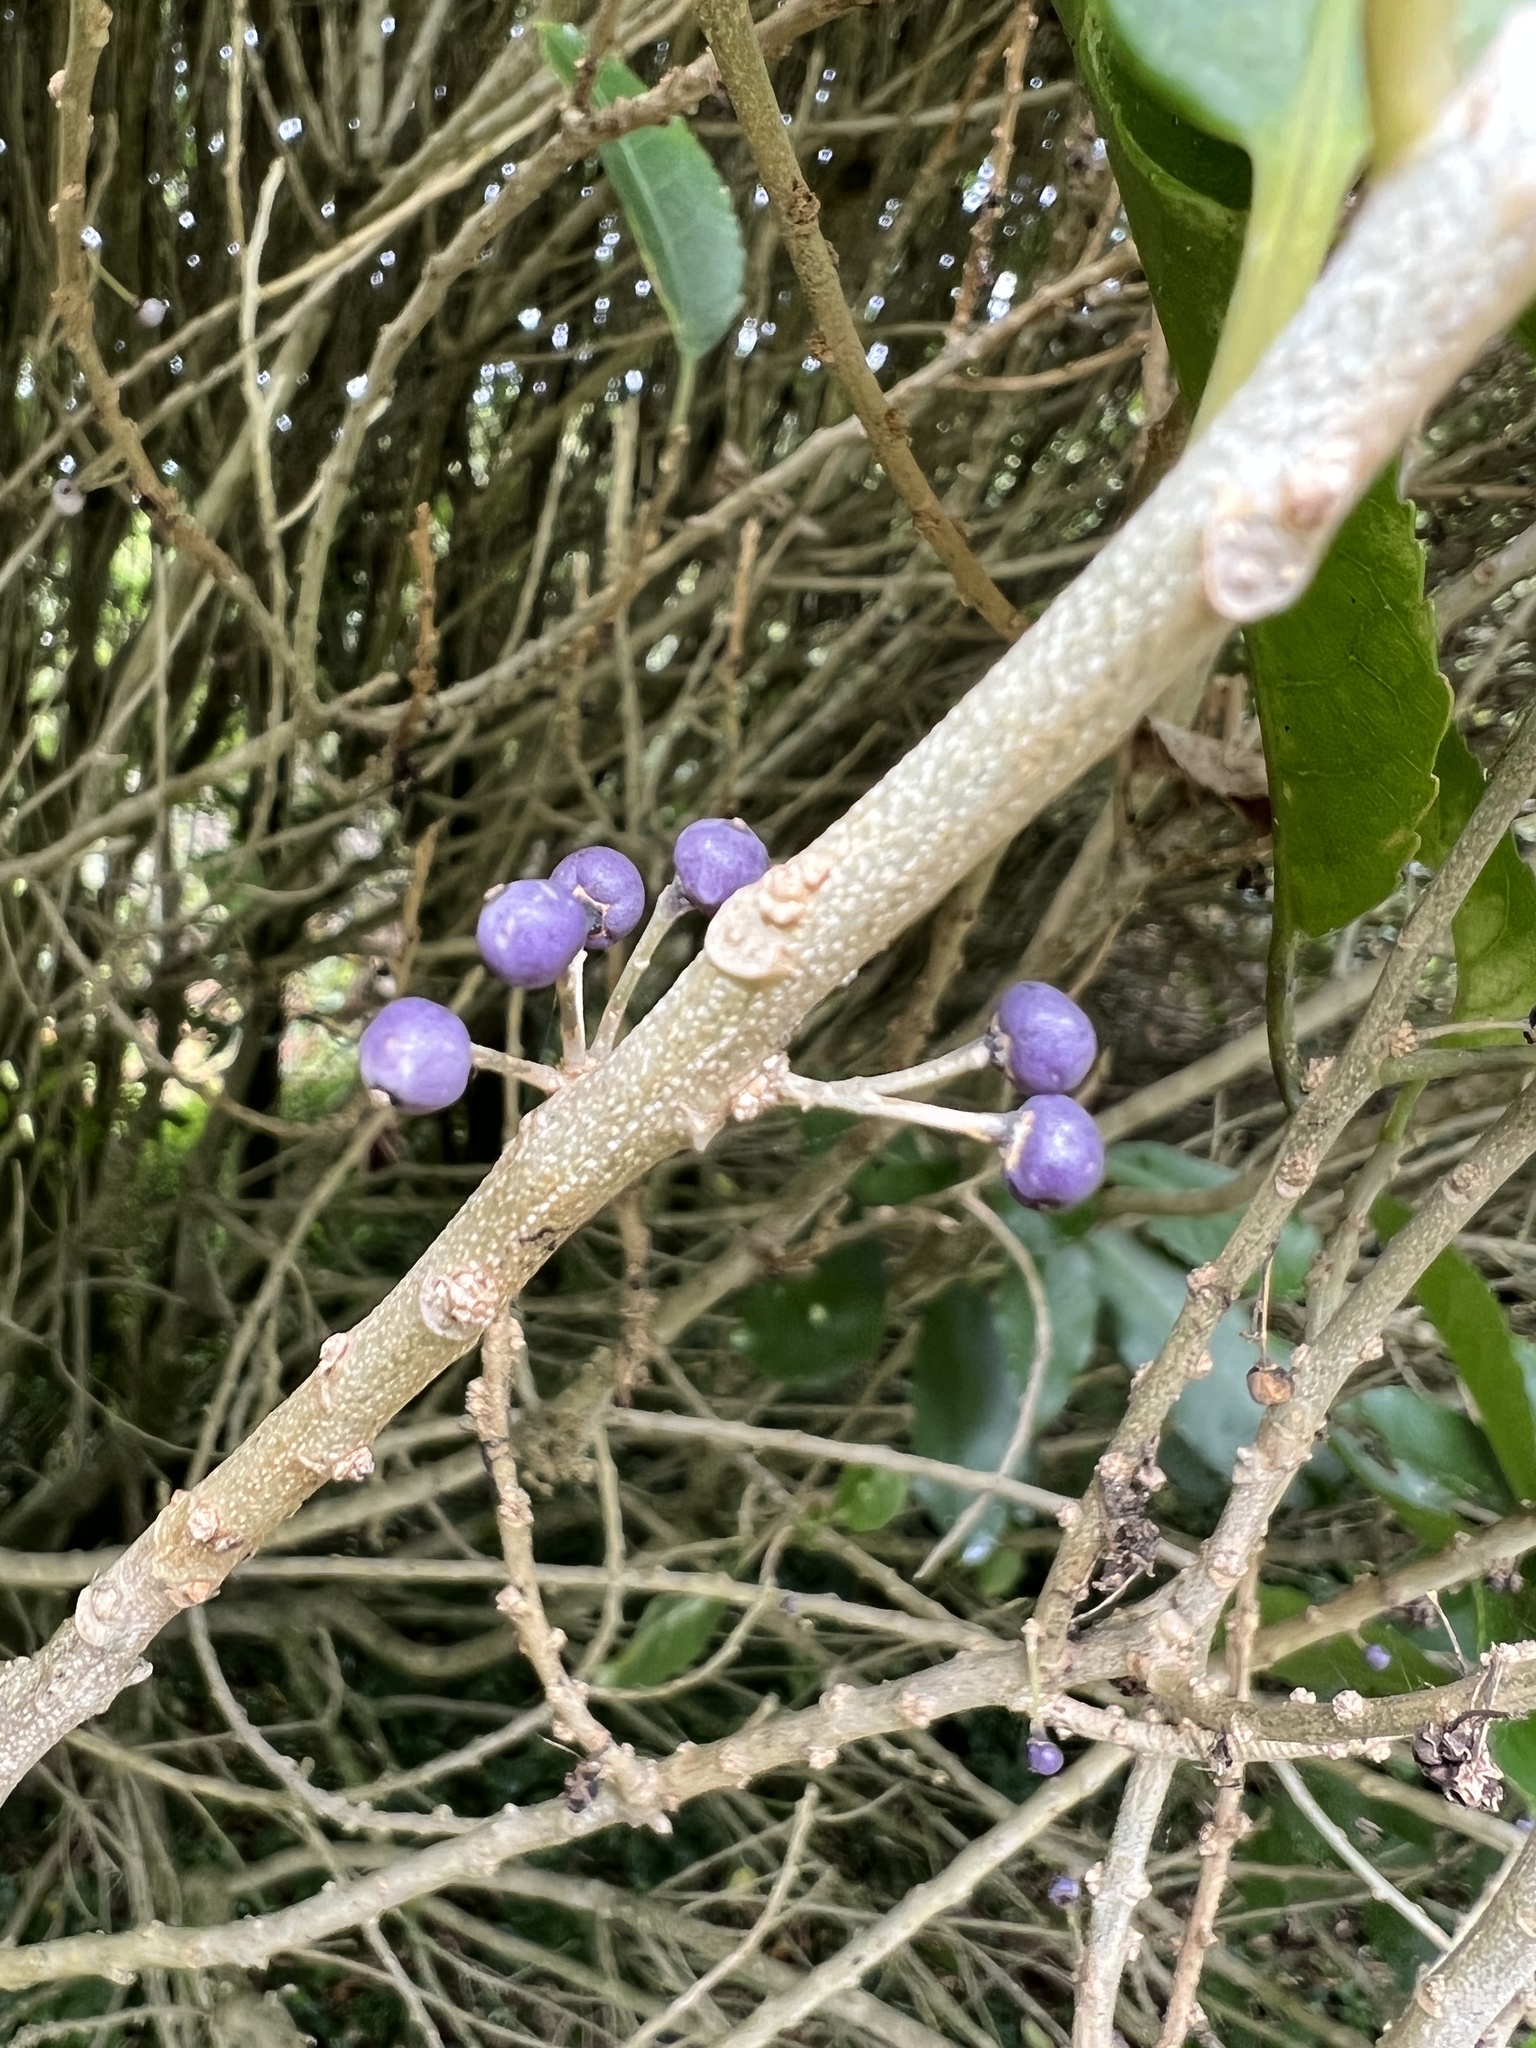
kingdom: Plantae
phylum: Tracheophyta
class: Magnoliopsida
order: Malpighiales
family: Violaceae
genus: Melicytus
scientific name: Melicytus ramiflorus
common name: Mahoe
